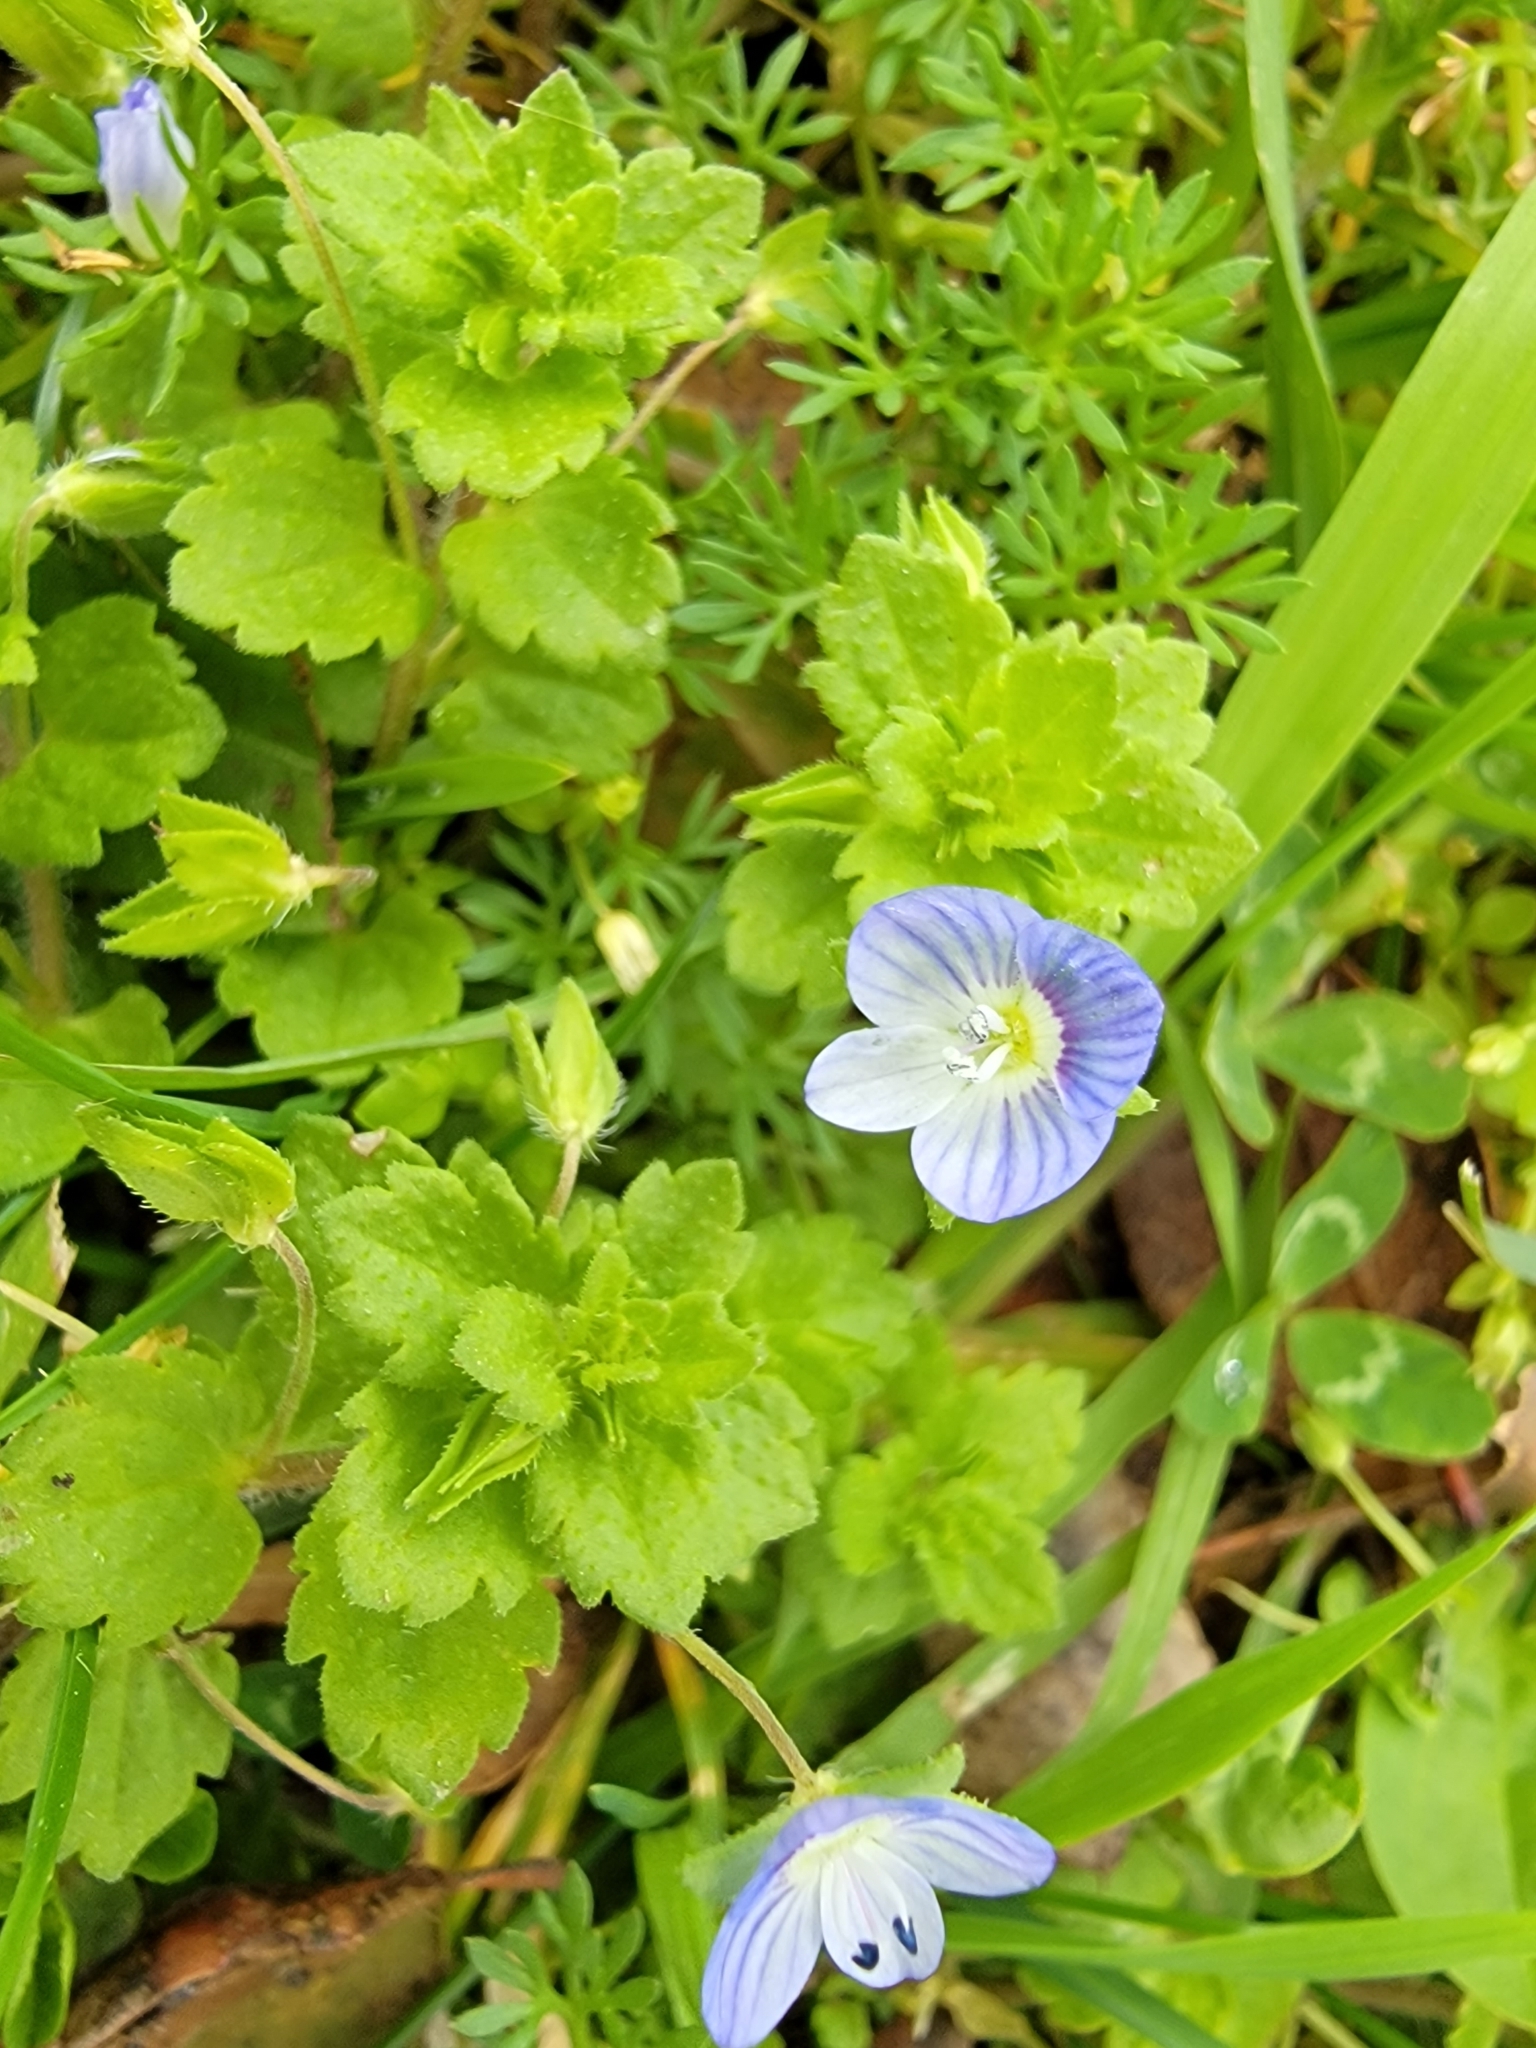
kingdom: Plantae
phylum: Tracheophyta
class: Magnoliopsida
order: Lamiales
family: Plantaginaceae
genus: Veronica
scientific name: Veronica persica
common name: Common field-speedwell
